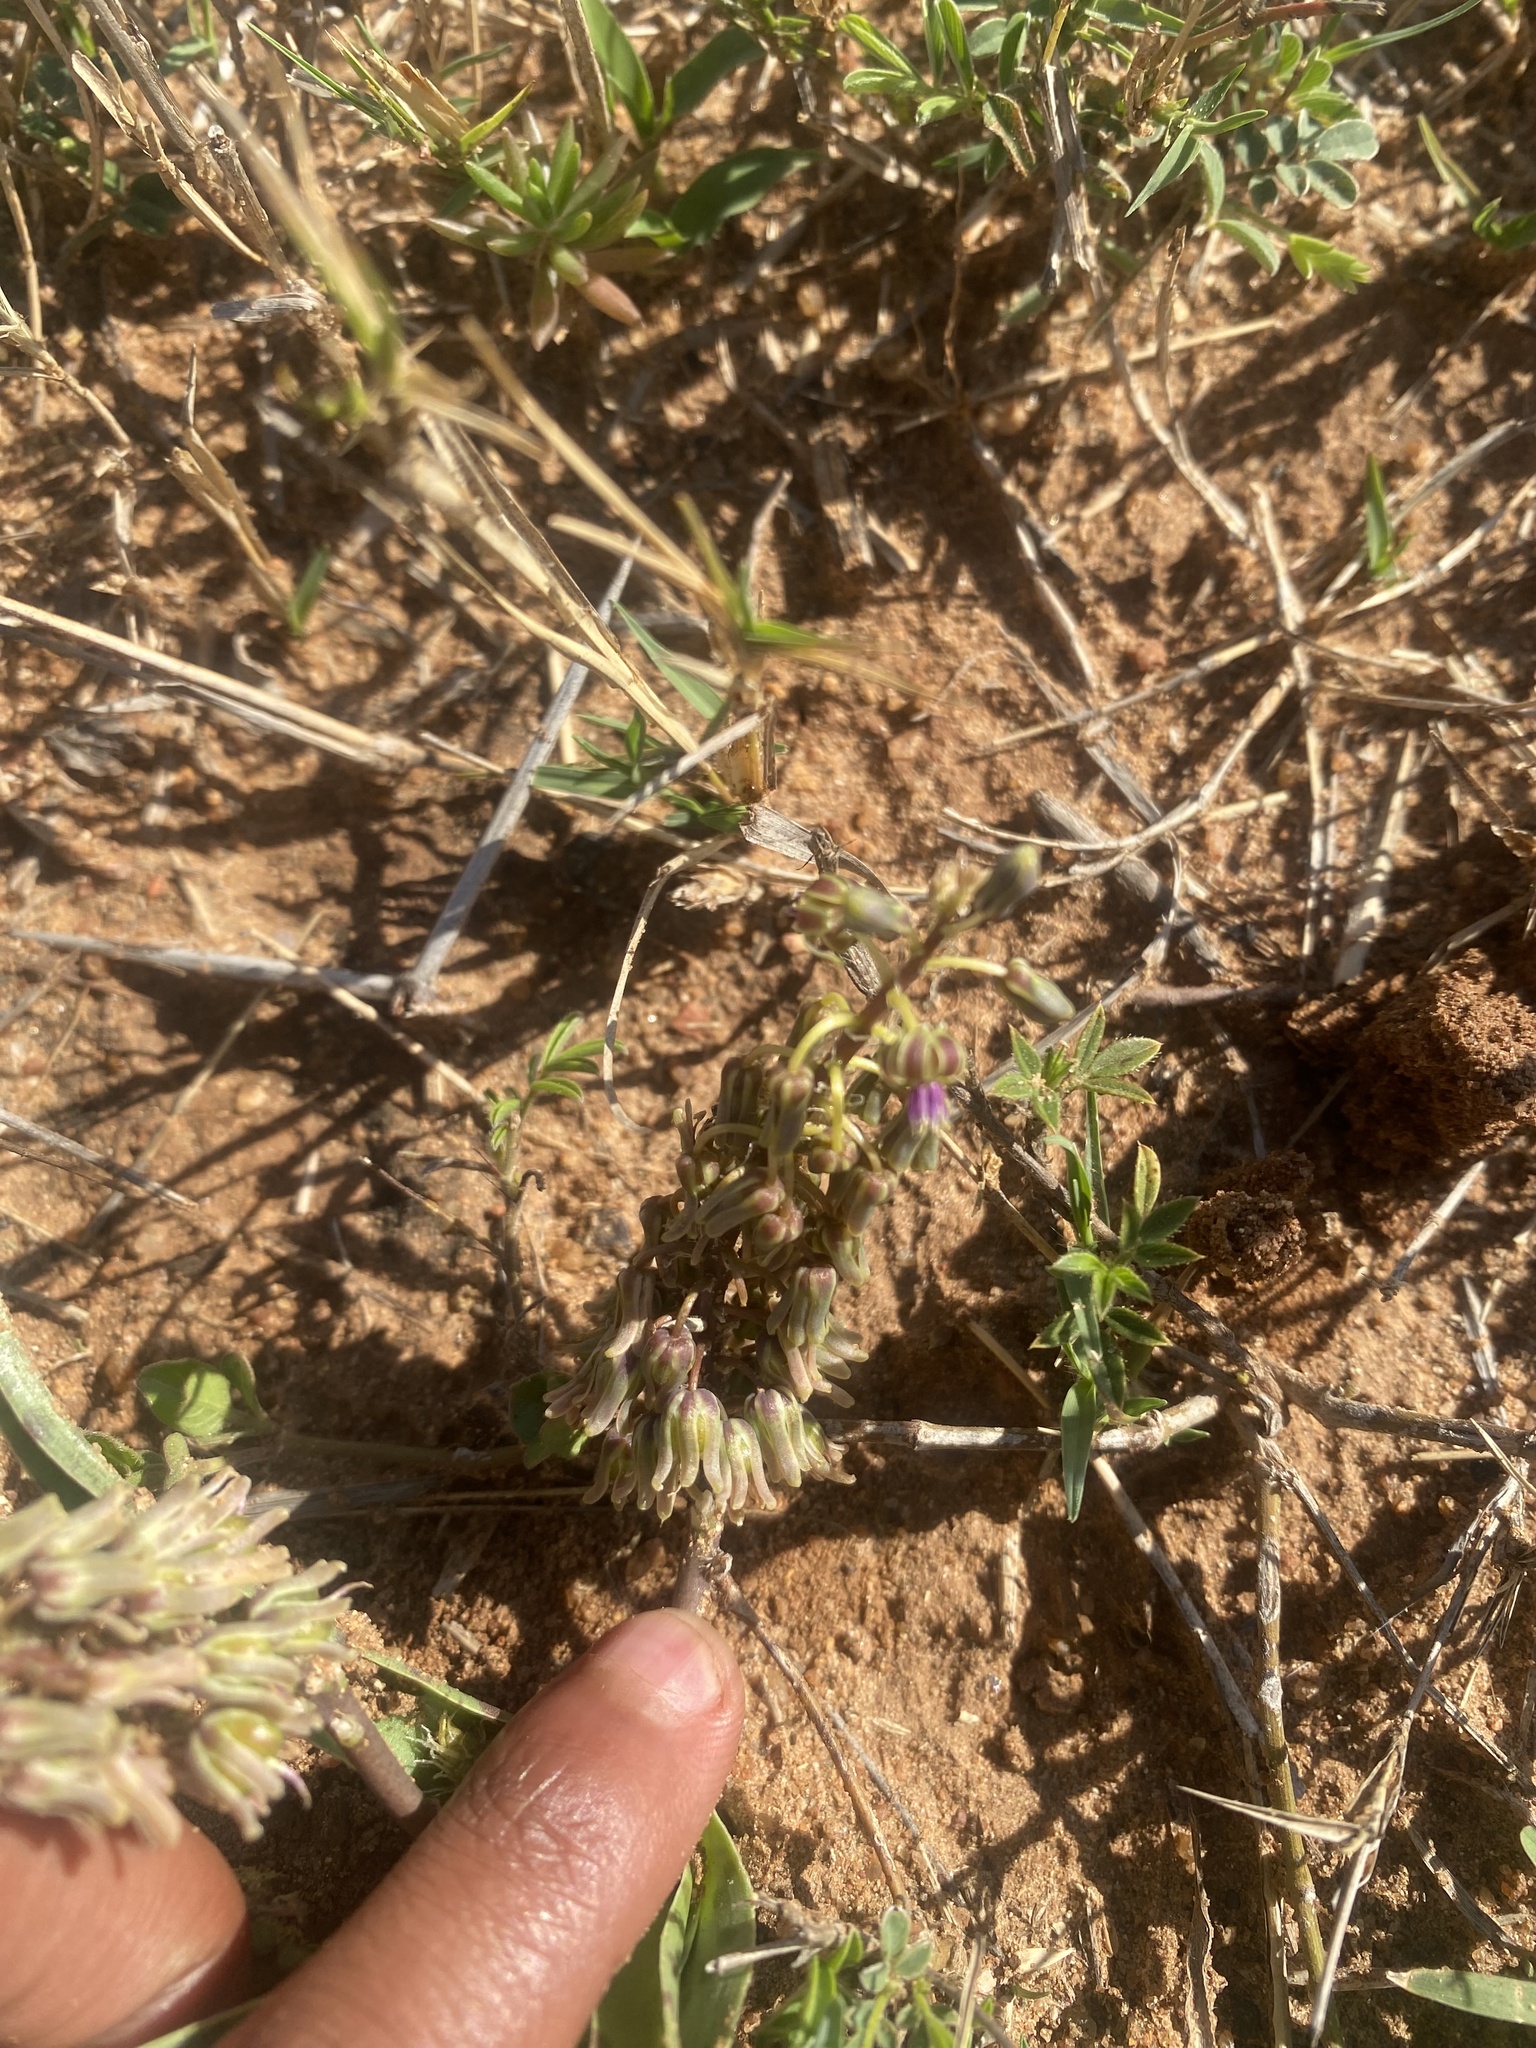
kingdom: Plantae
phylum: Tracheophyta
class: Liliopsida
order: Asparagales
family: Asparagaceae
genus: Ledebouria
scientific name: Ledebouria luteola
